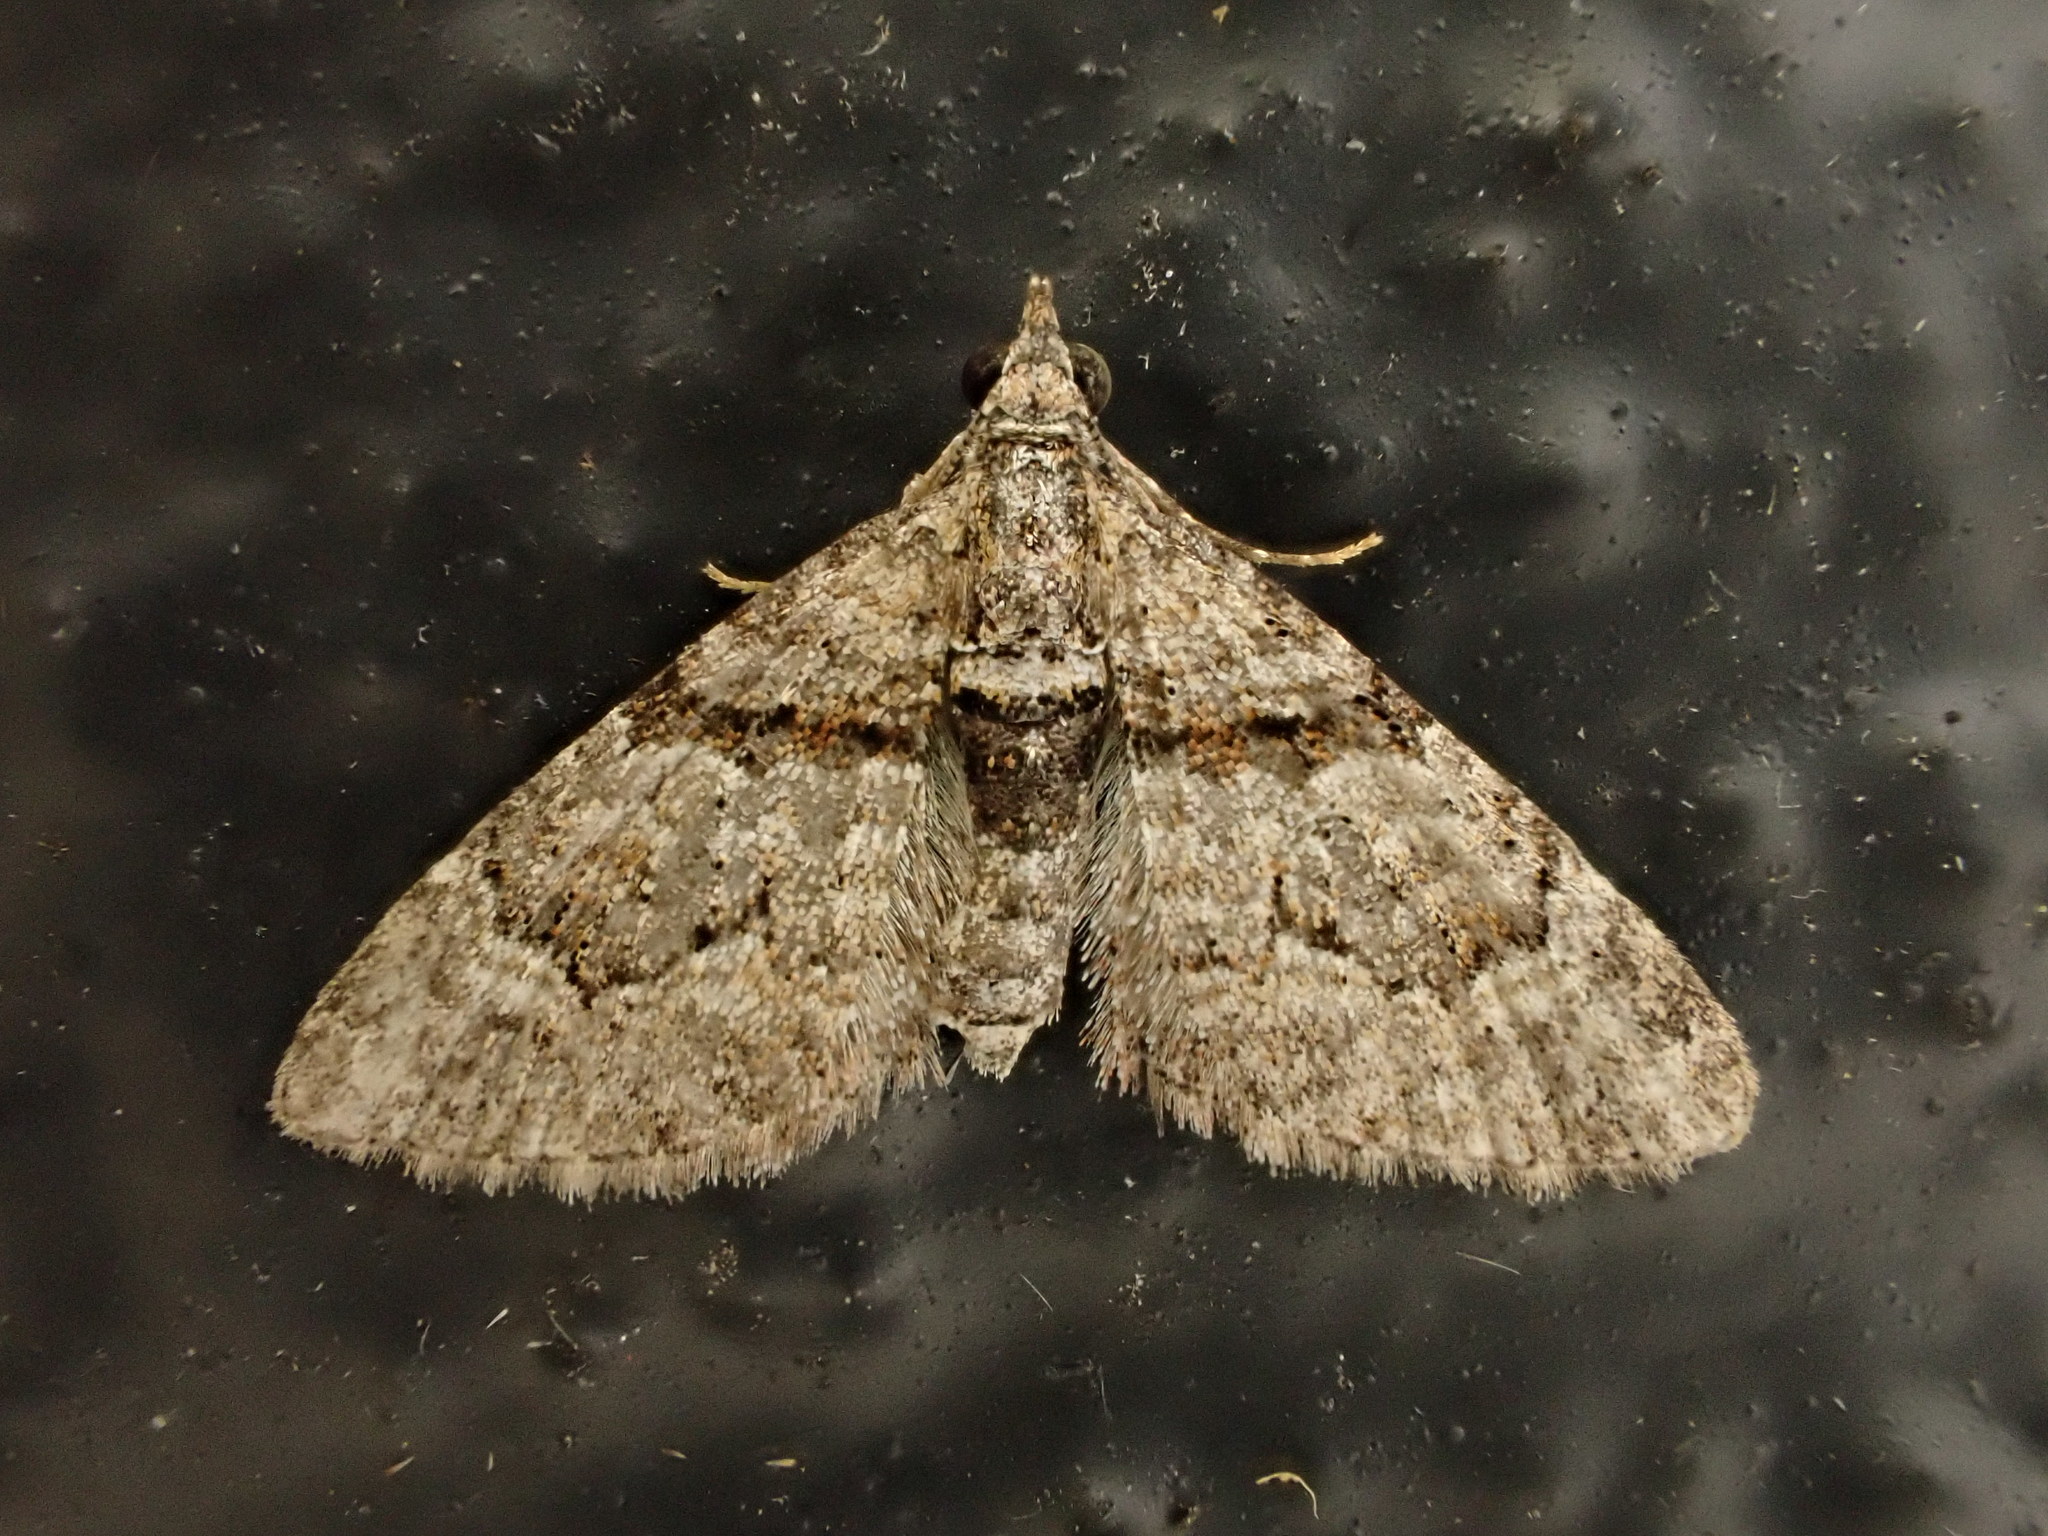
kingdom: Animalia
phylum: Arthropoda
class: Insecta
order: Lepidoptera
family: Geometridae
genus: Phrissogonus
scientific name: Phrissogonus laticostata
